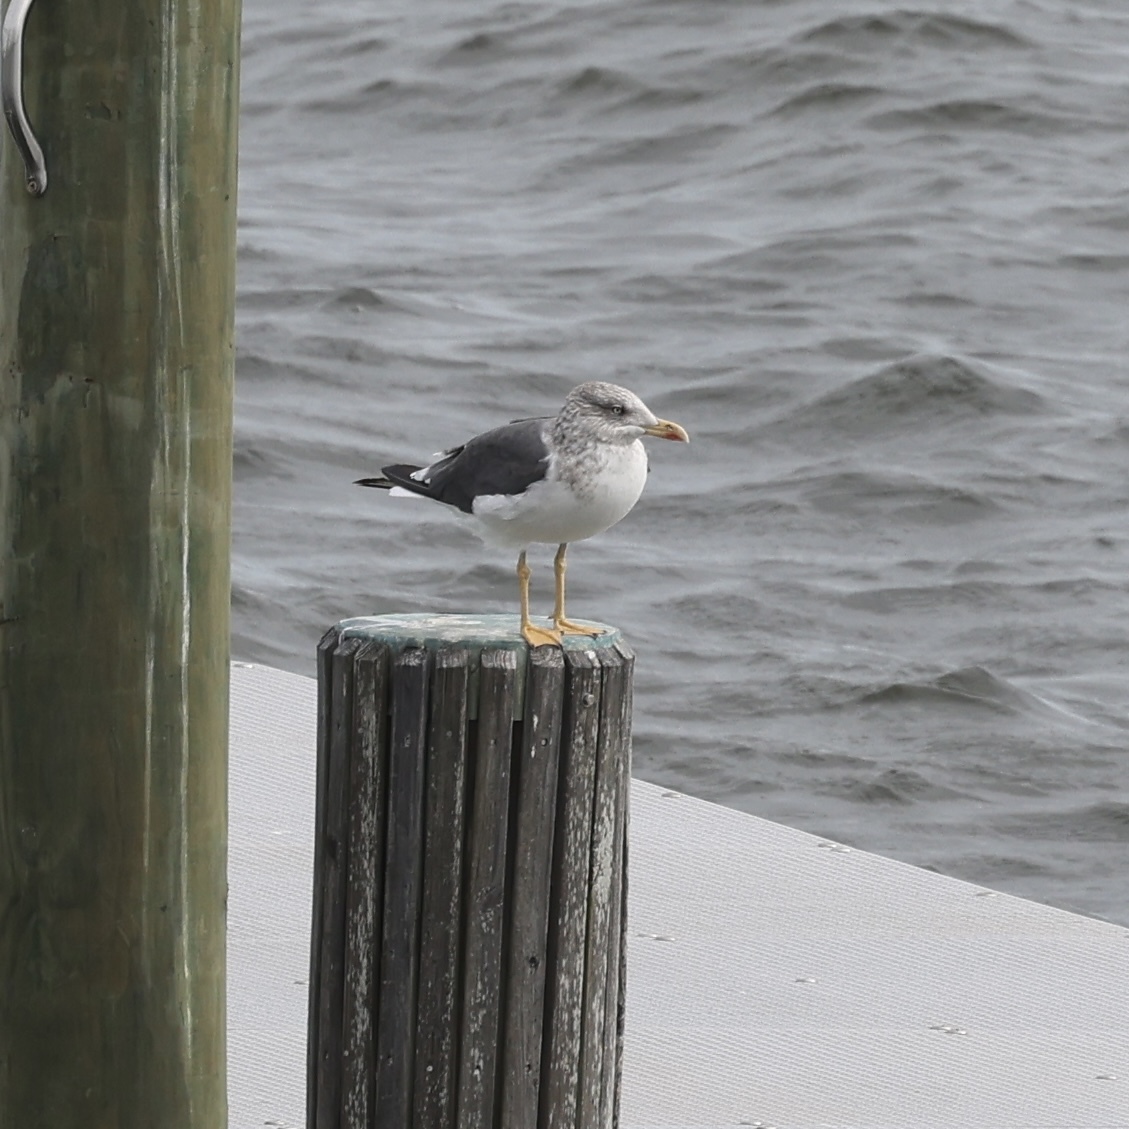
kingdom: Animalia
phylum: Chordata
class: Aves
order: Charadriiformes
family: Laridae
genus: Larus
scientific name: Larus fuscus
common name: Lesser black-backed gull
